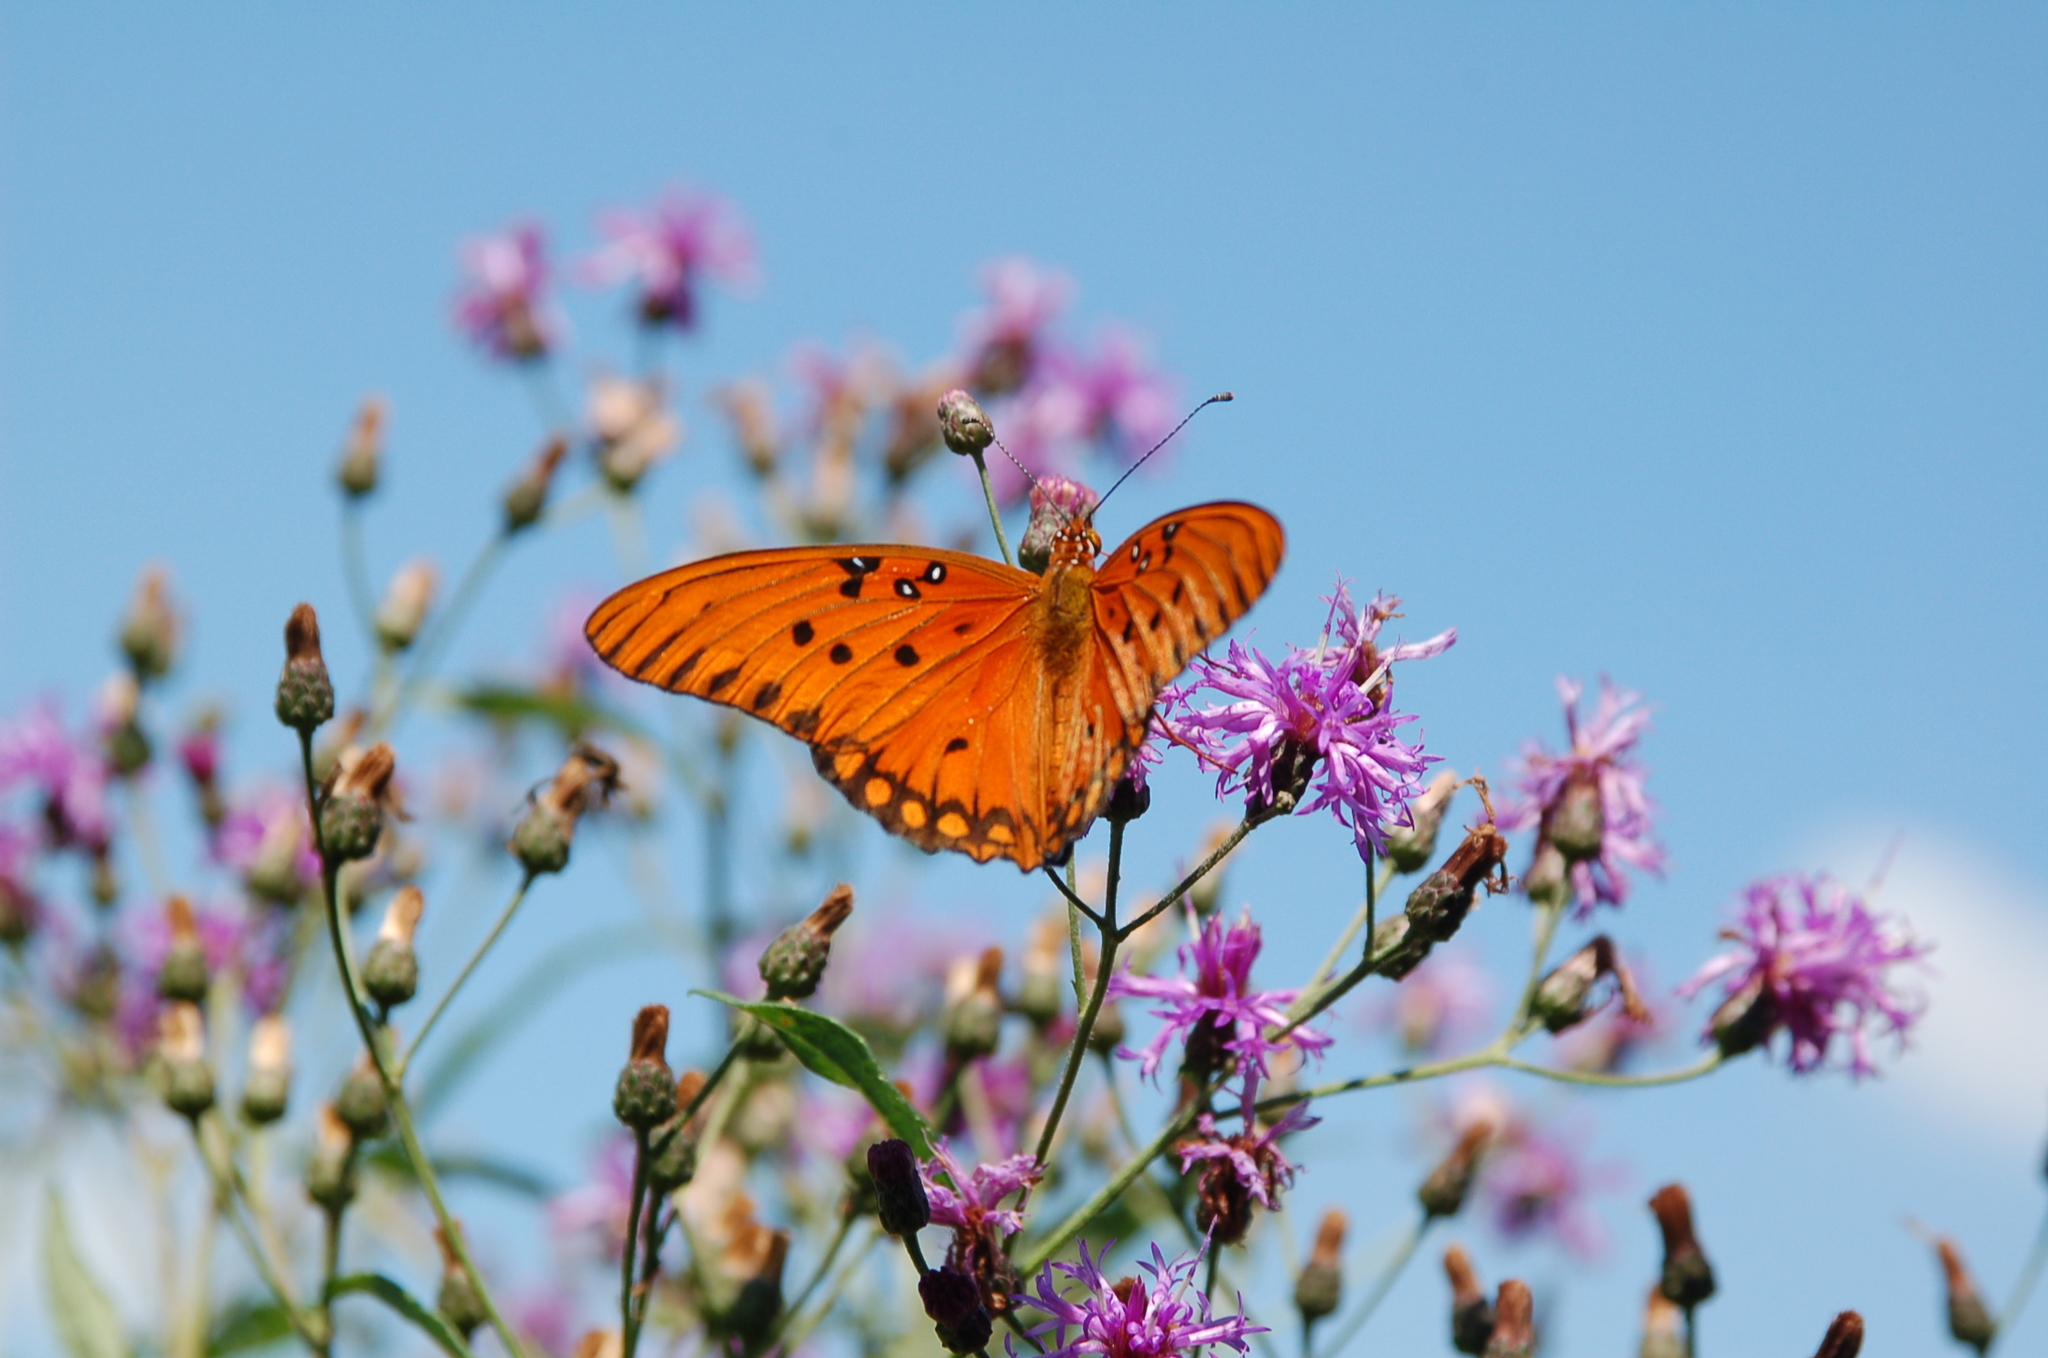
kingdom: Animalia
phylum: Arthropoda
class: Insecta
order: Lepidoptera
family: Nymphalidae
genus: Dione
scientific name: Dione vanillae
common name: Gulf fritillary
